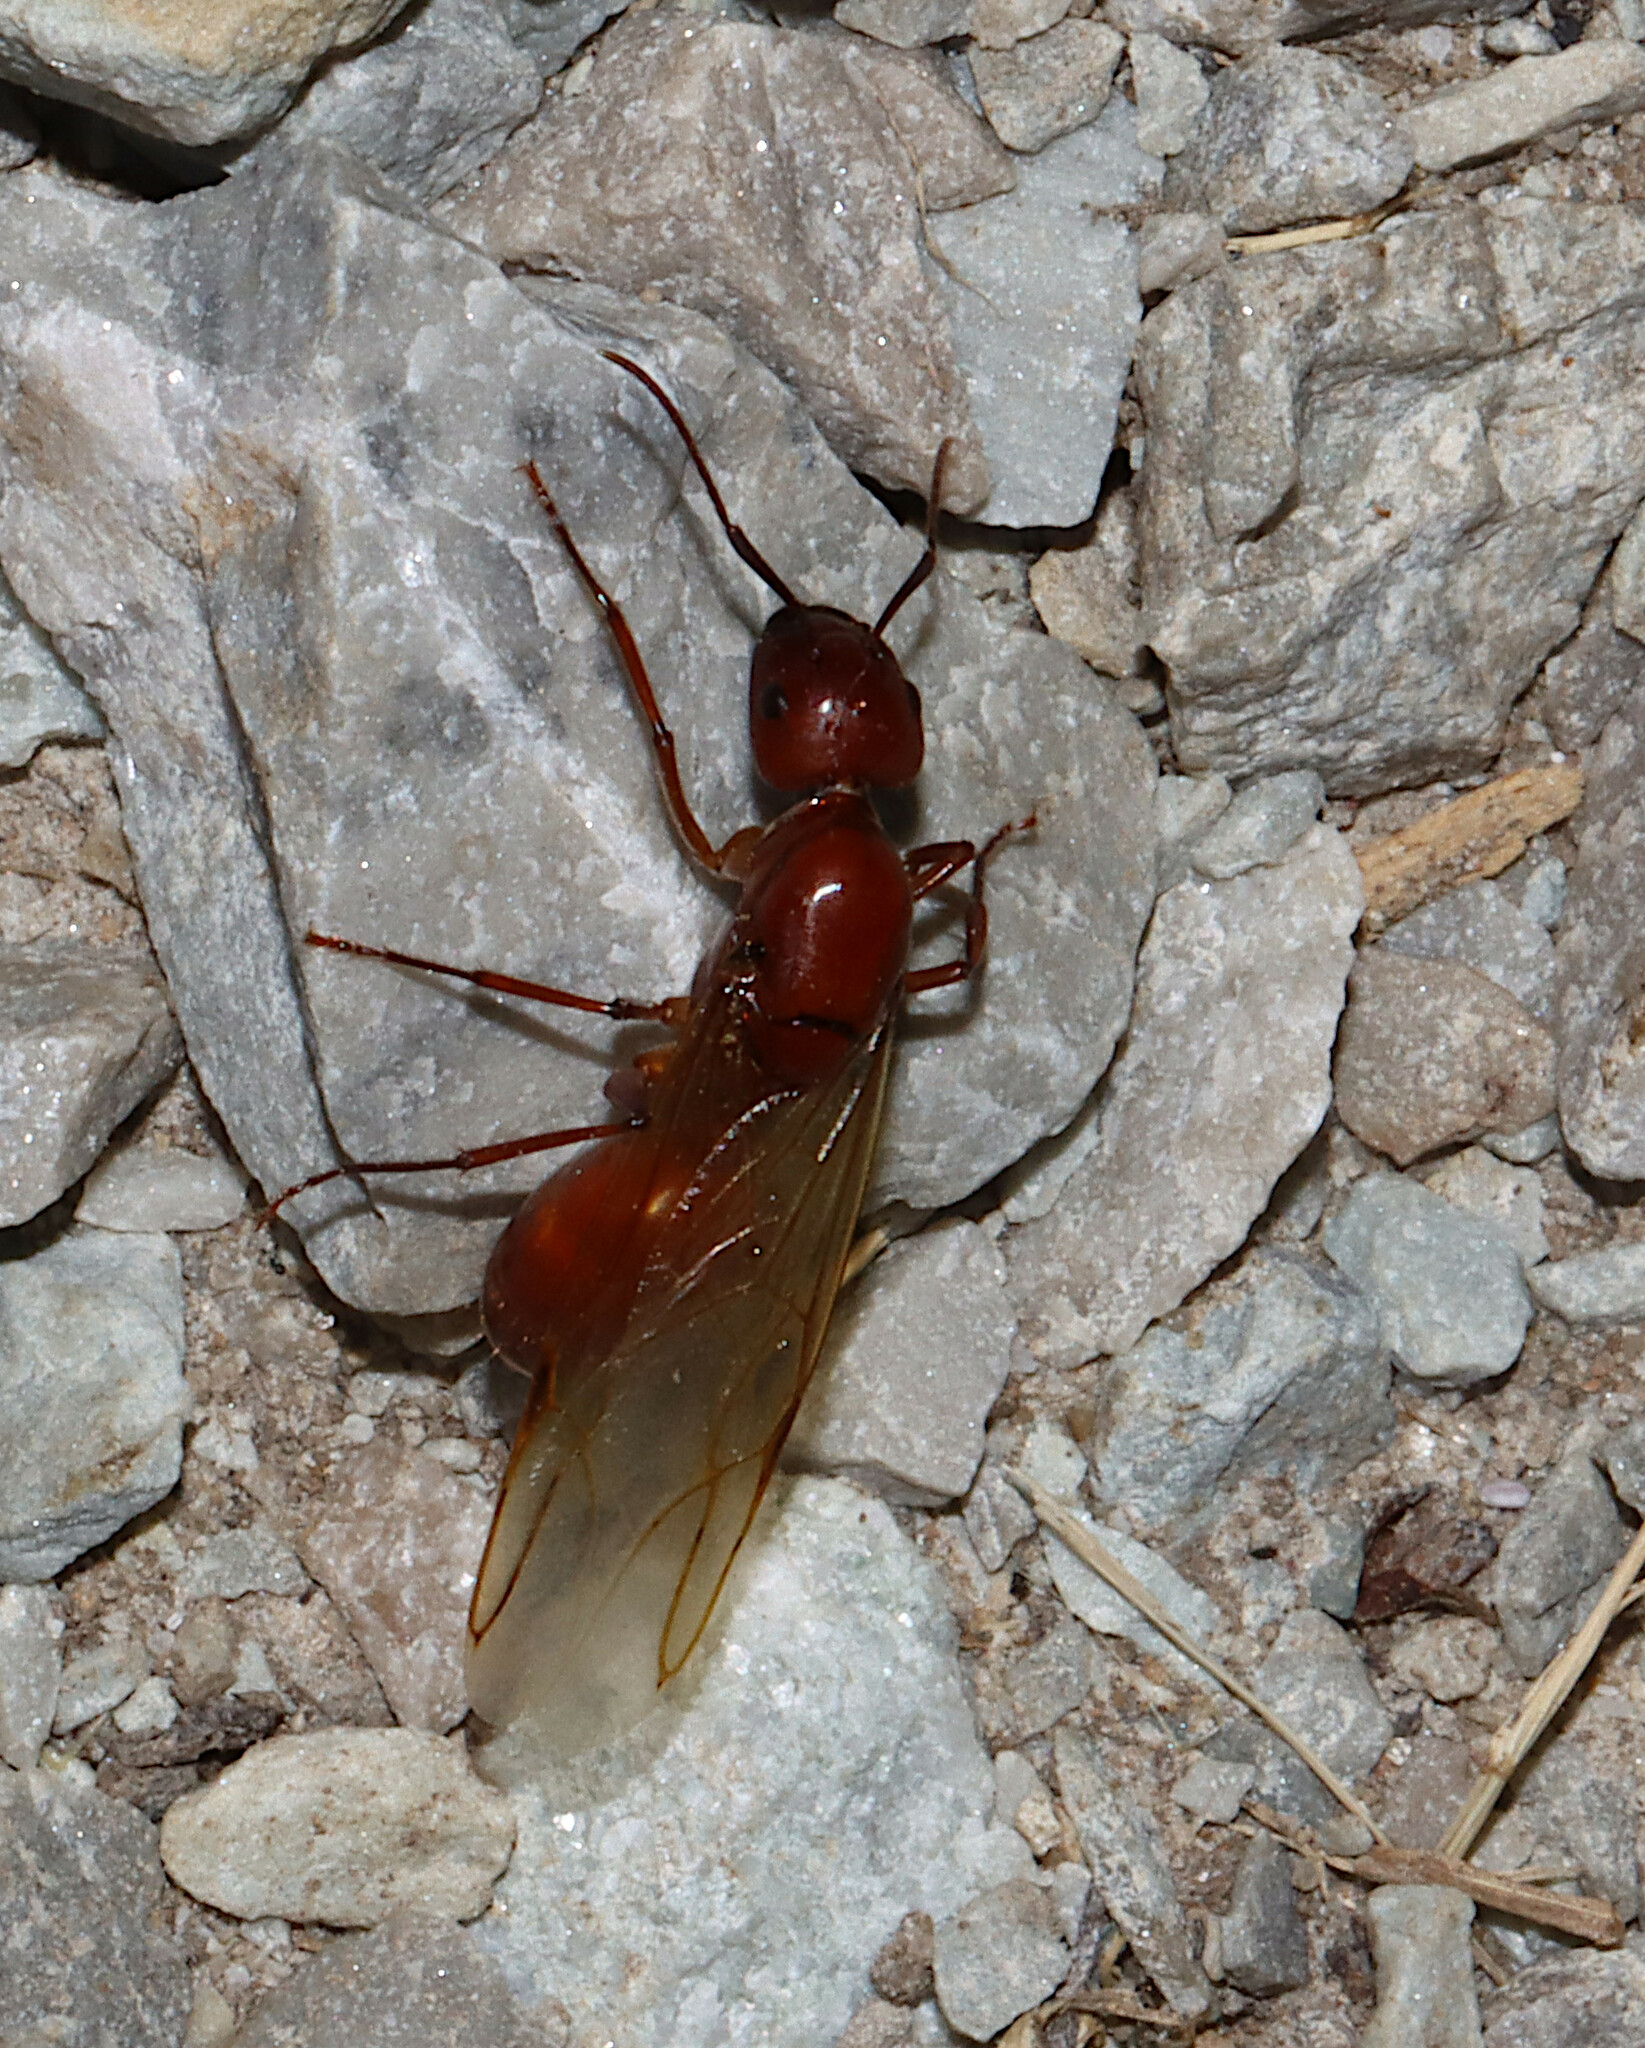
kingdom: Animalia
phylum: Arthropoda
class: Insecta
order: Hymenoptera
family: Formicidae
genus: Camponotus
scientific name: Camponotus castaneus
